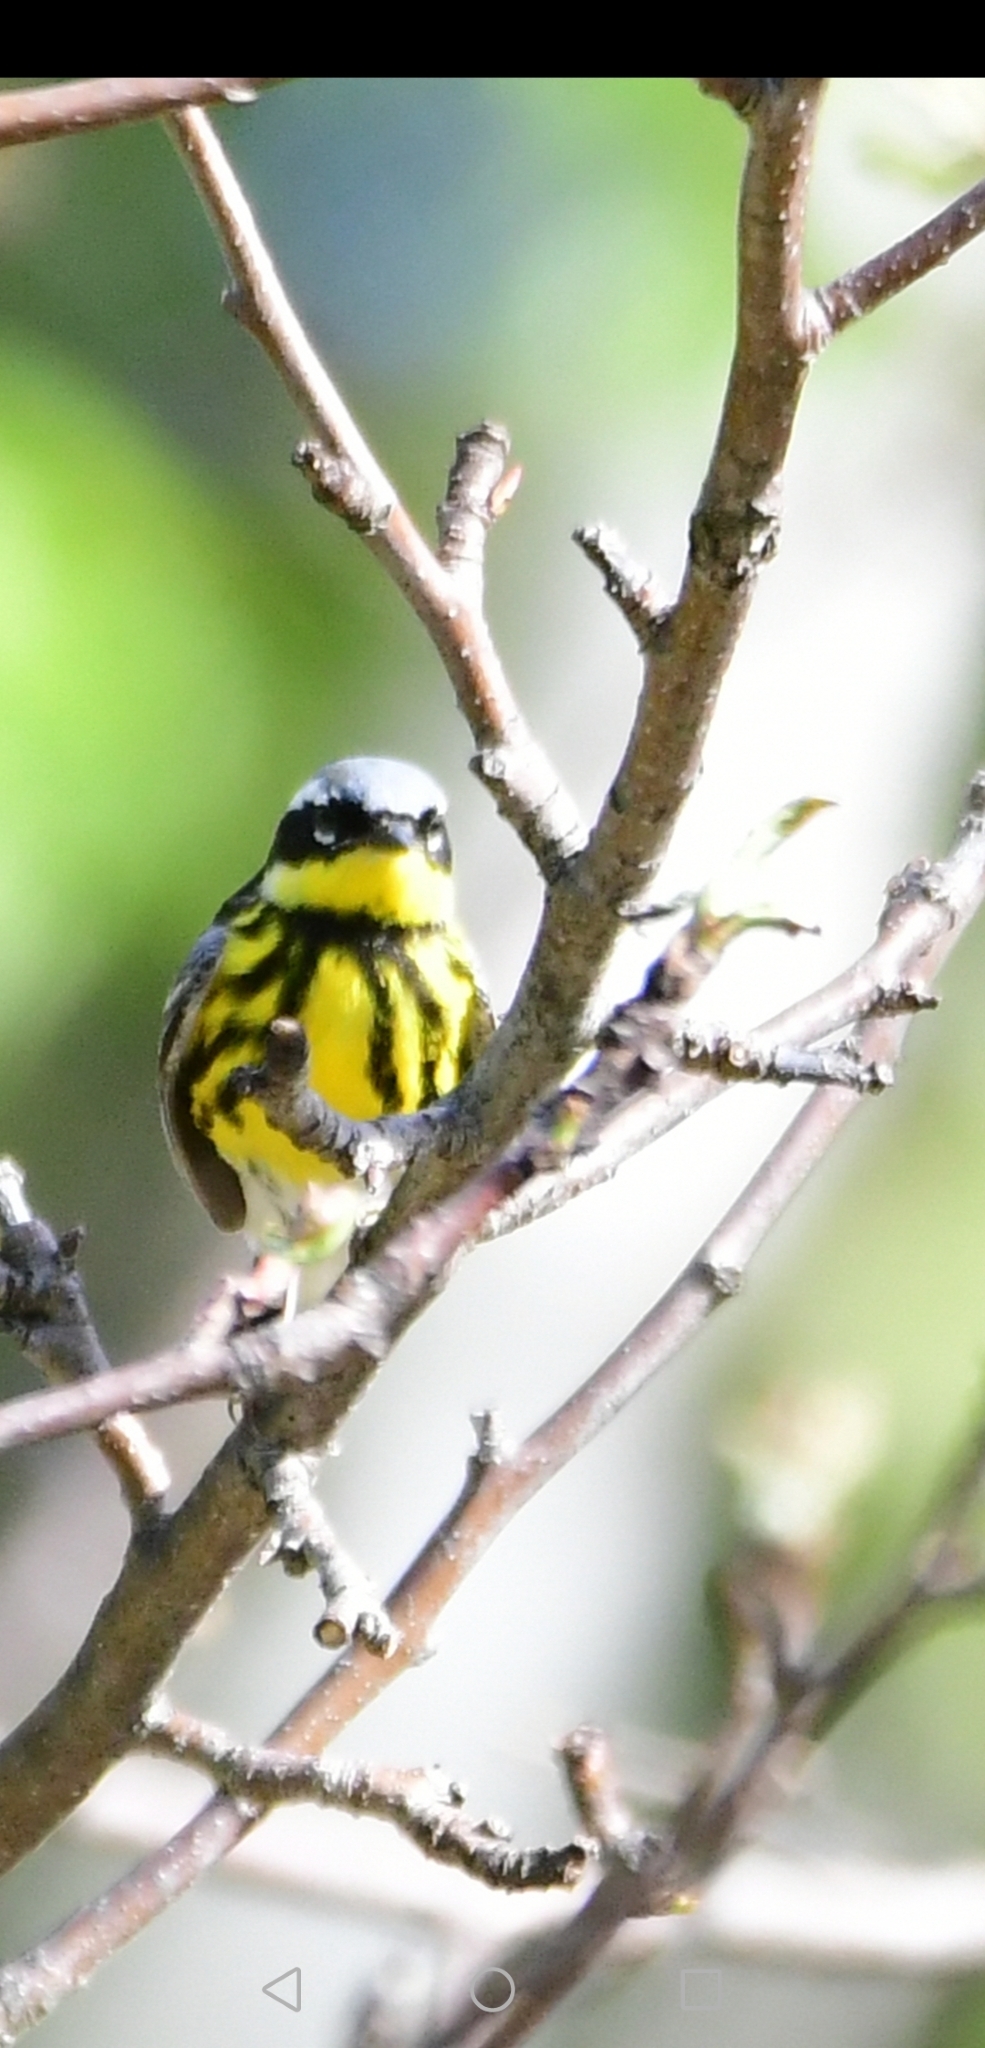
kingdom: Animalia
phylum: Chordata
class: Aves
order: Passeriformes
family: Parulidae
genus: Setophaga
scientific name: Setophaga magnolia
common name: Magnolia warbler
